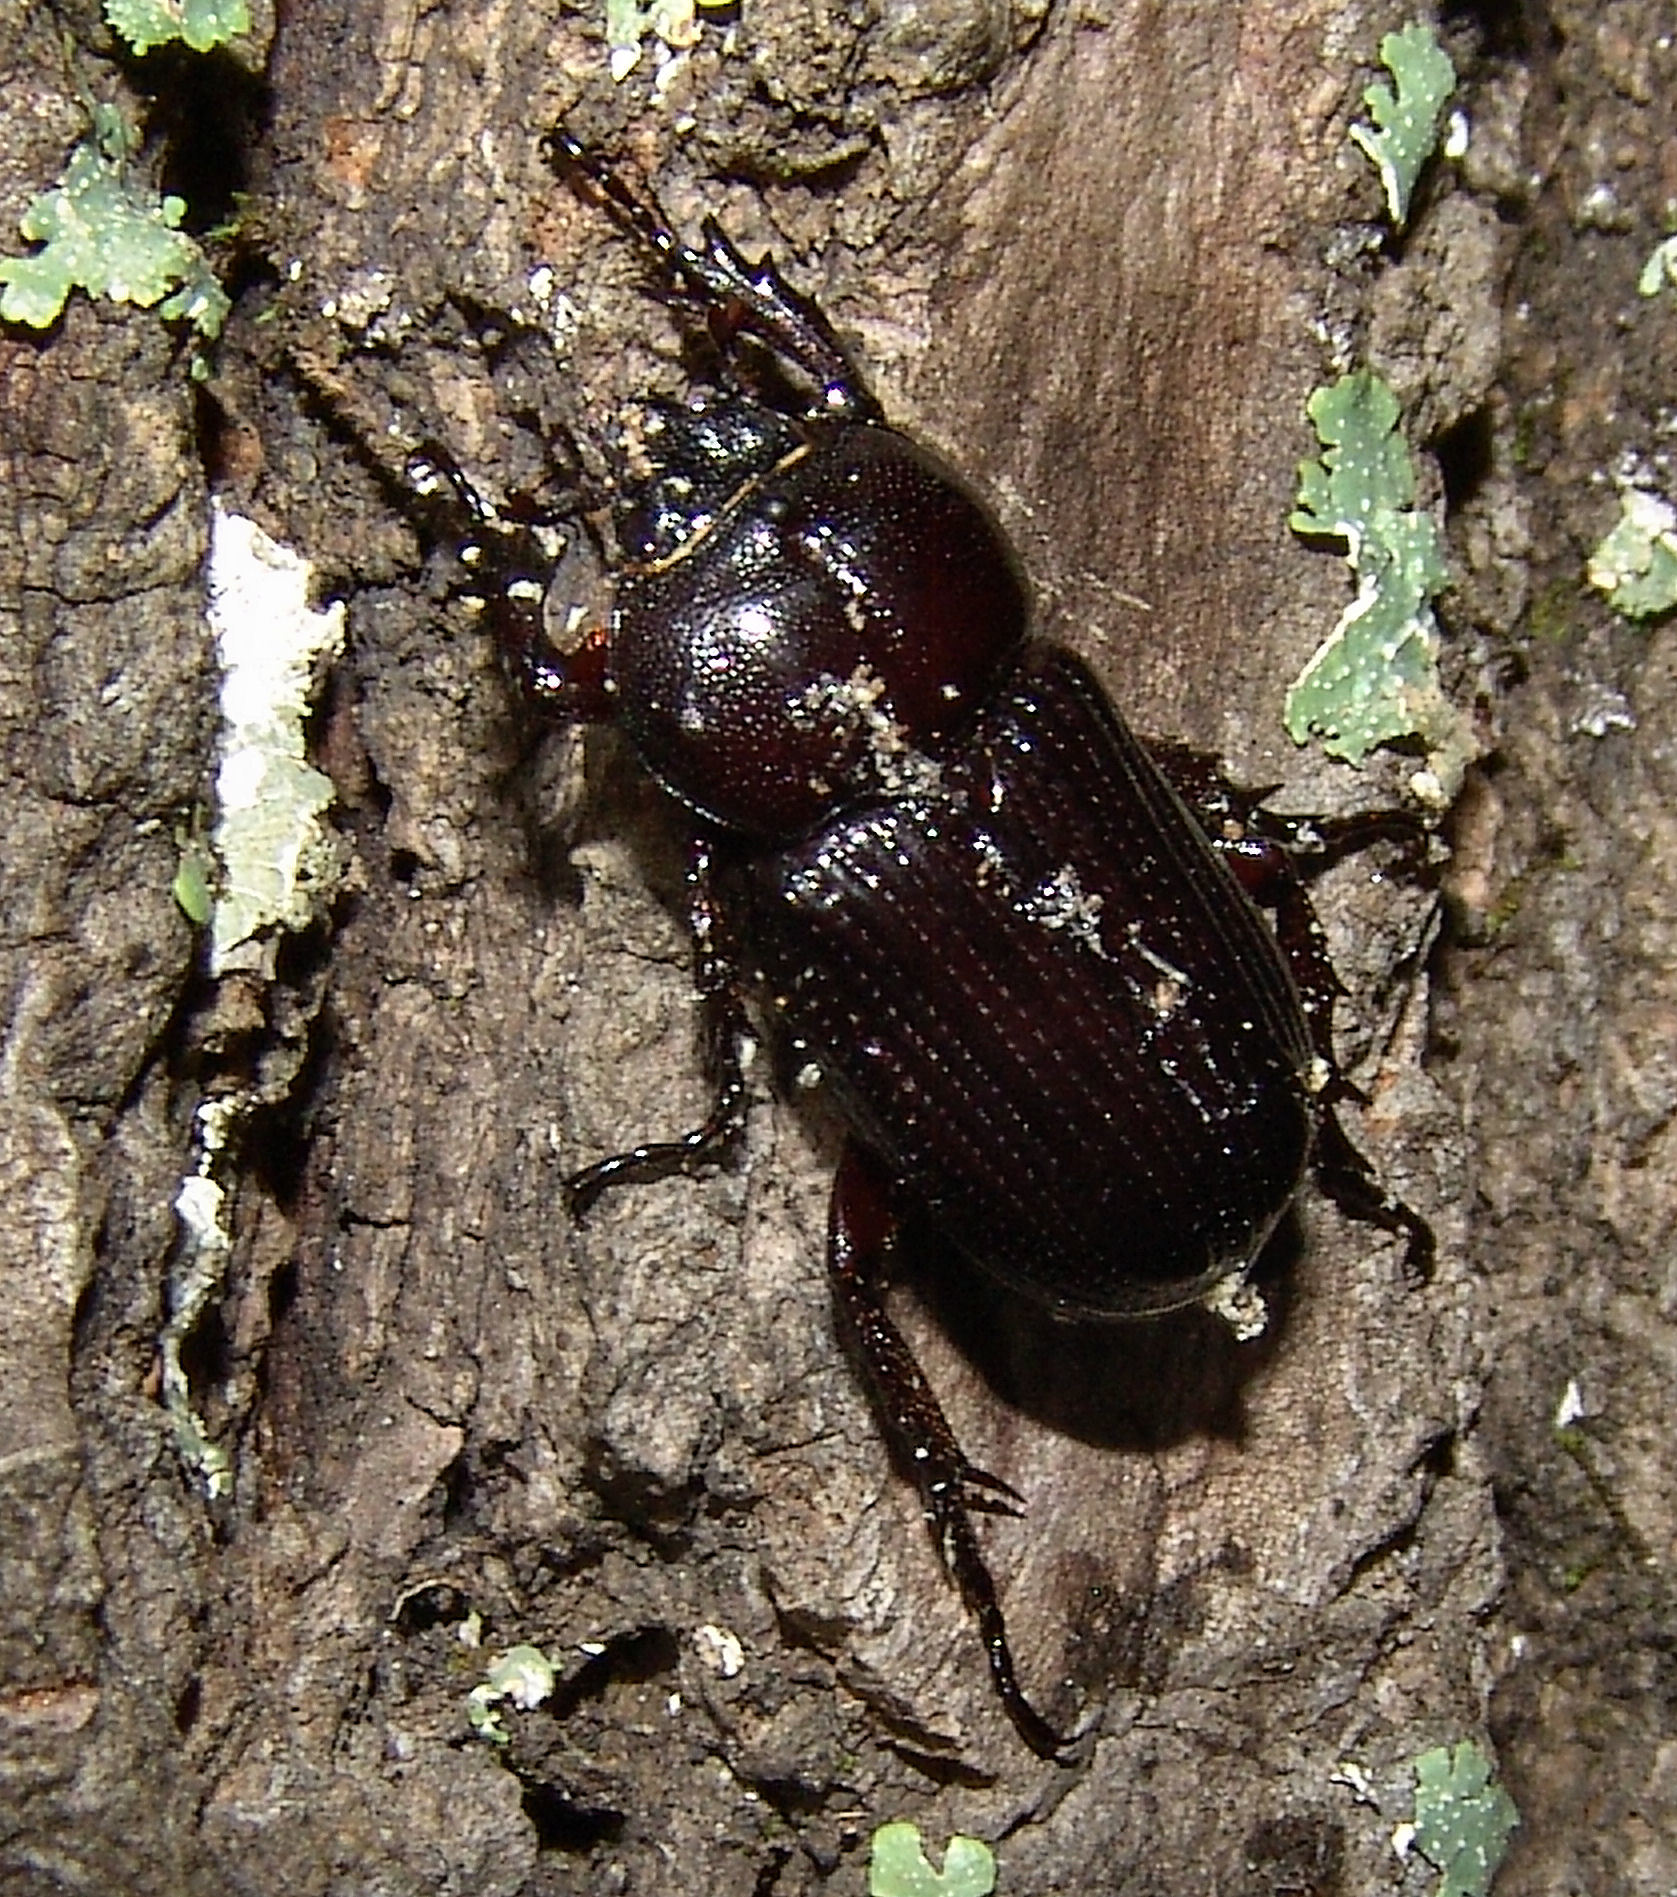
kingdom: Animalia
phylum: Arthropoda
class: Insecta
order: Coleoptera
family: Scarabaeidae
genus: Phileurus
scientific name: Phileurus valgus
